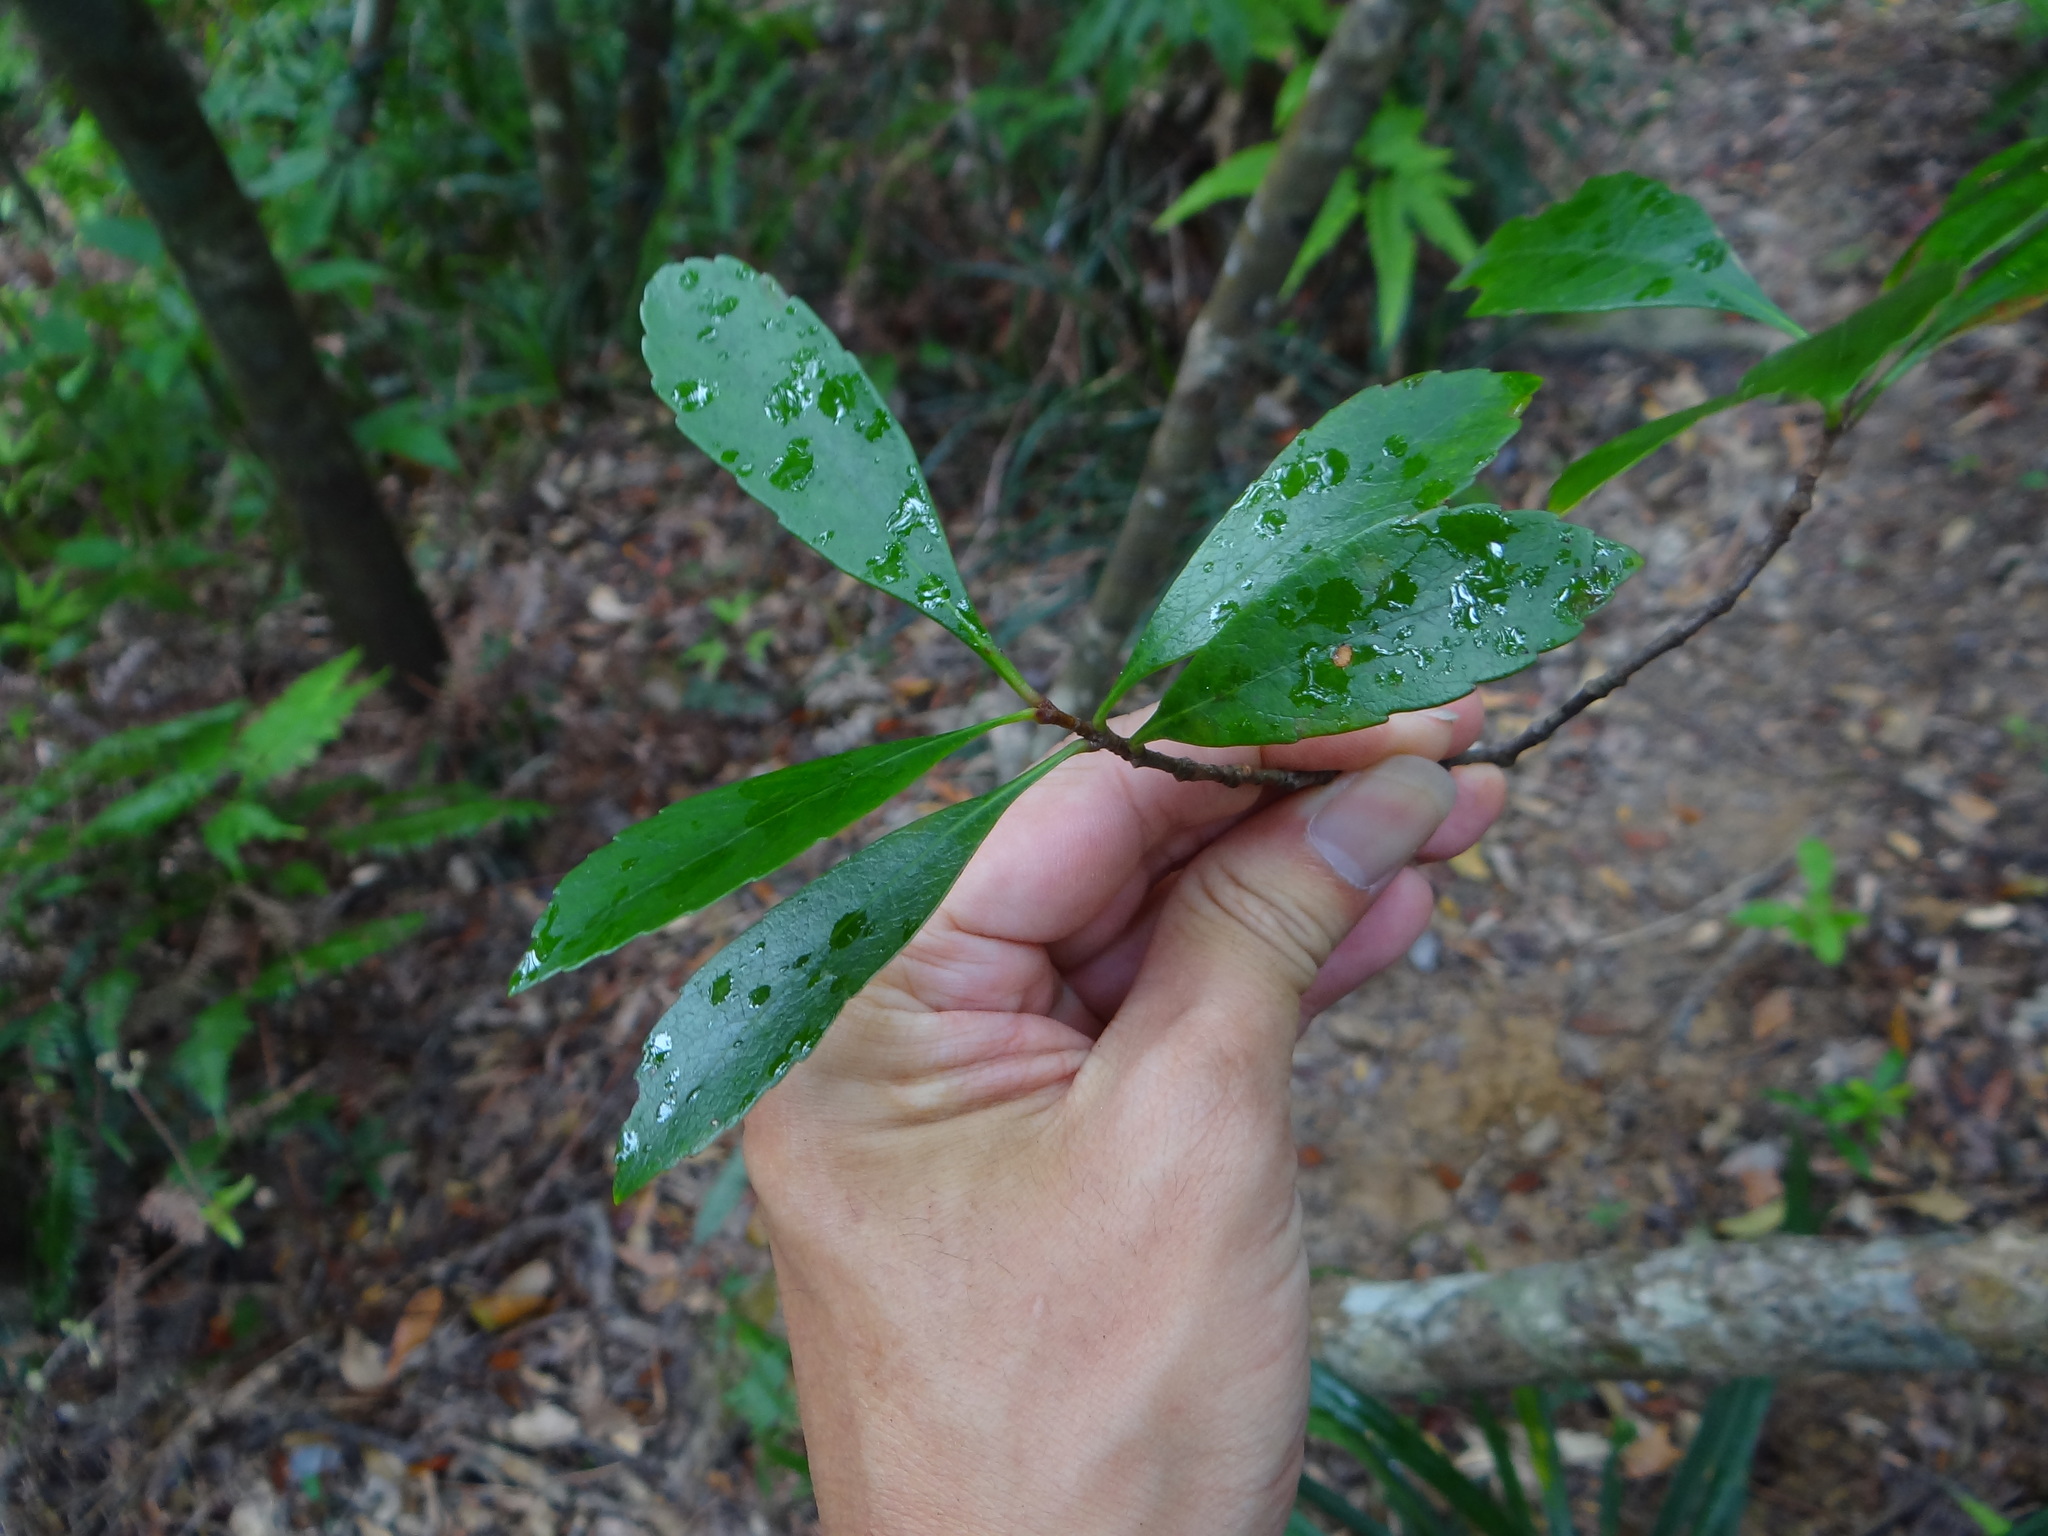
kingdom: Plantae
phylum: Tracheophyta
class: Magnoliopsida
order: Rosales
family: Rosaceae
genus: Rhaphiolepis
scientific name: Rhaphiolepis indica
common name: India-hawthorn
